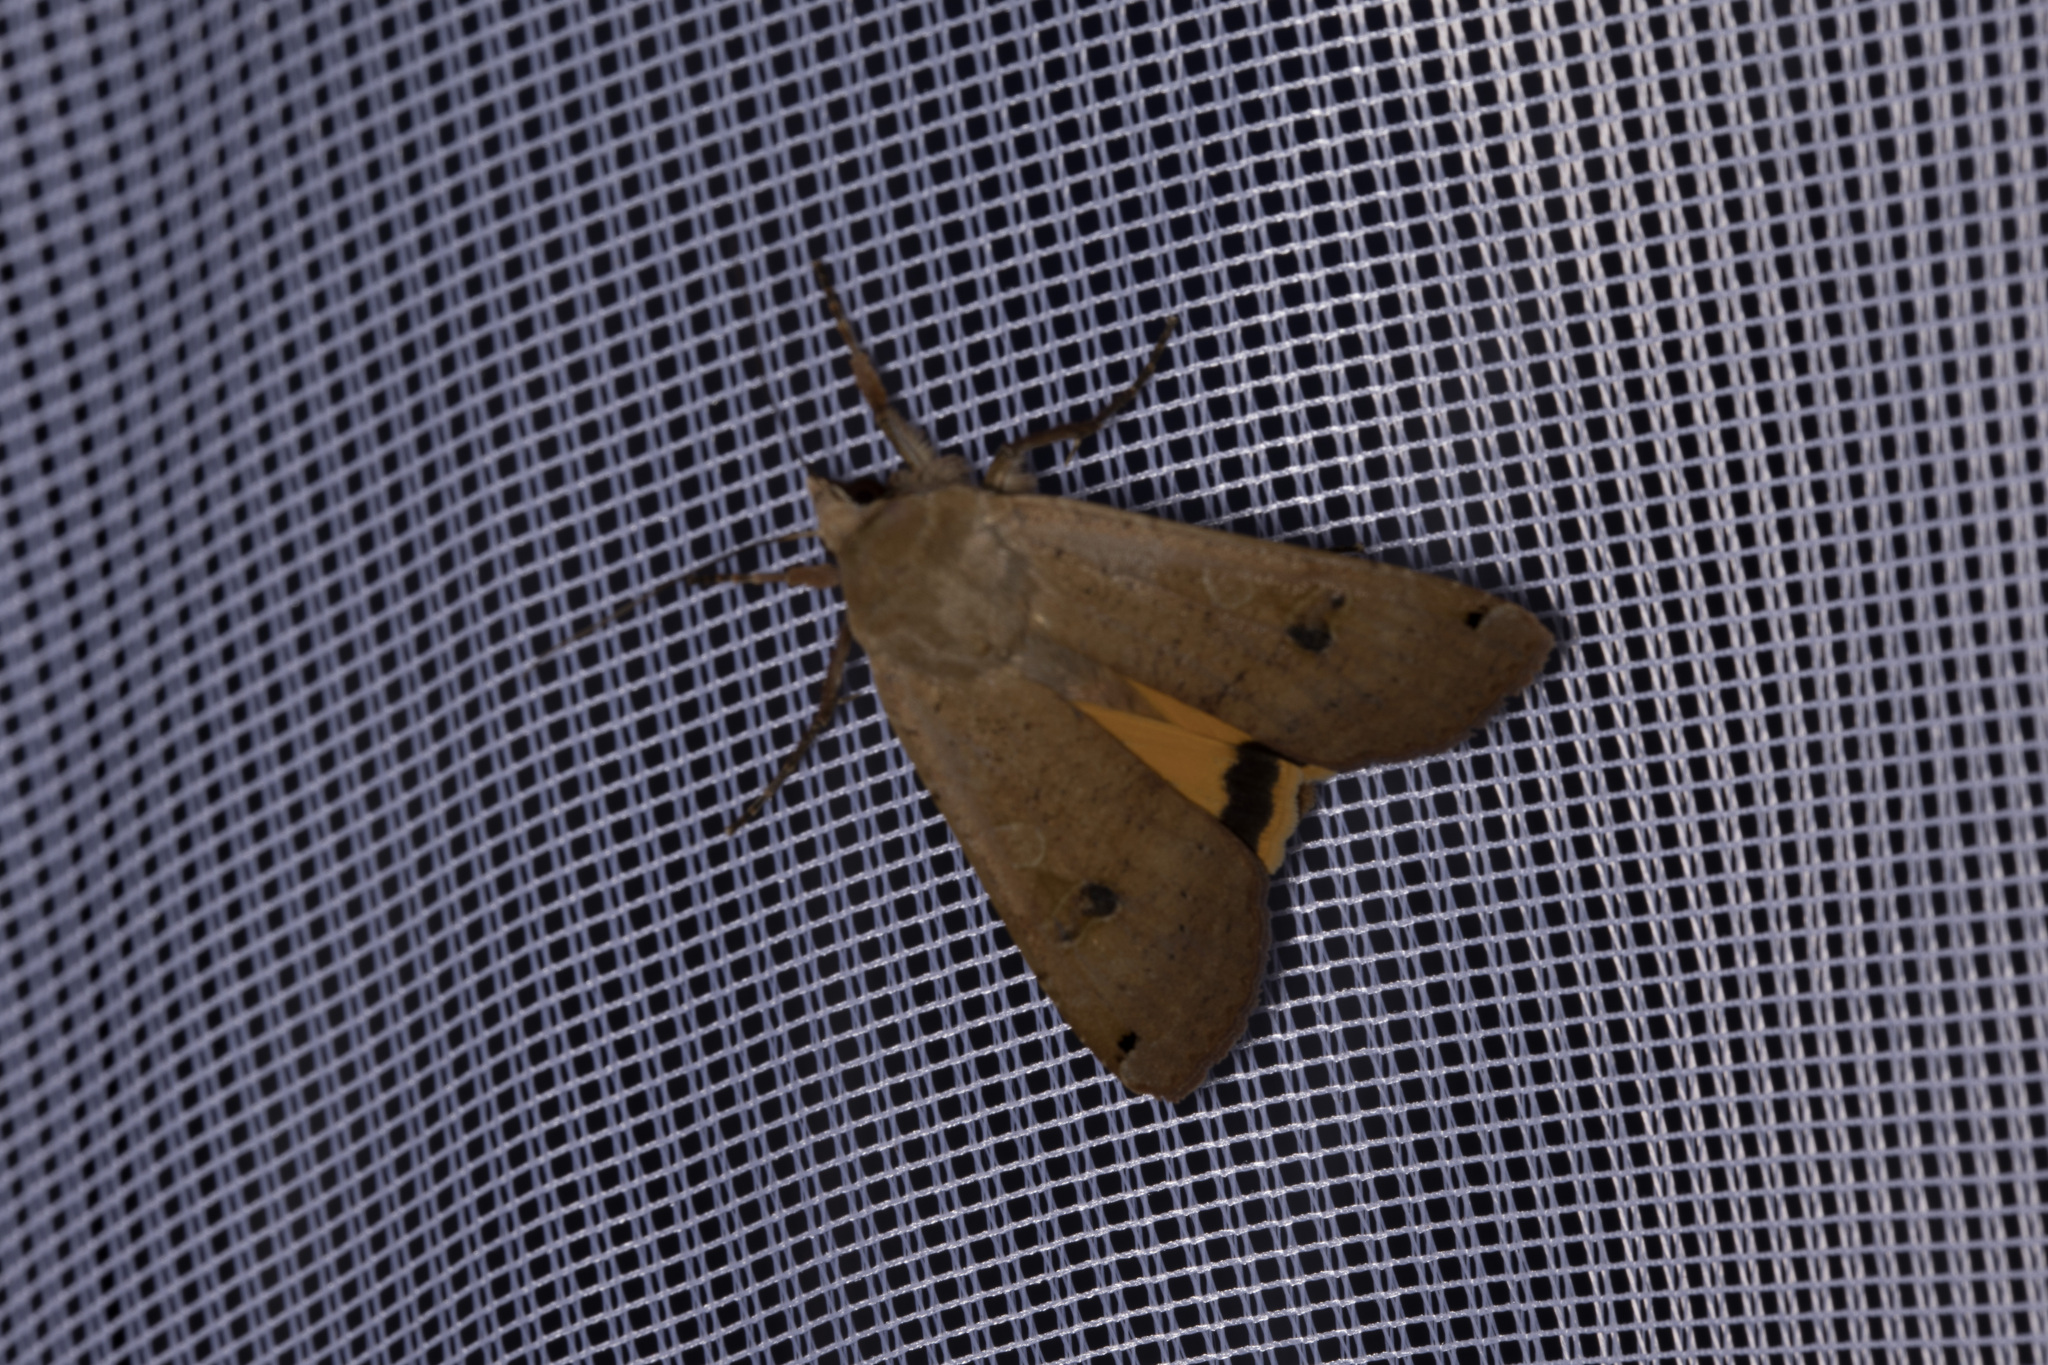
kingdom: Animalia
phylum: Arthropoda
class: Insecta
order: Lepidoptera
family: Noctuidae
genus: Noctua
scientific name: Noctua pronuba
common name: Large yellow underwing
